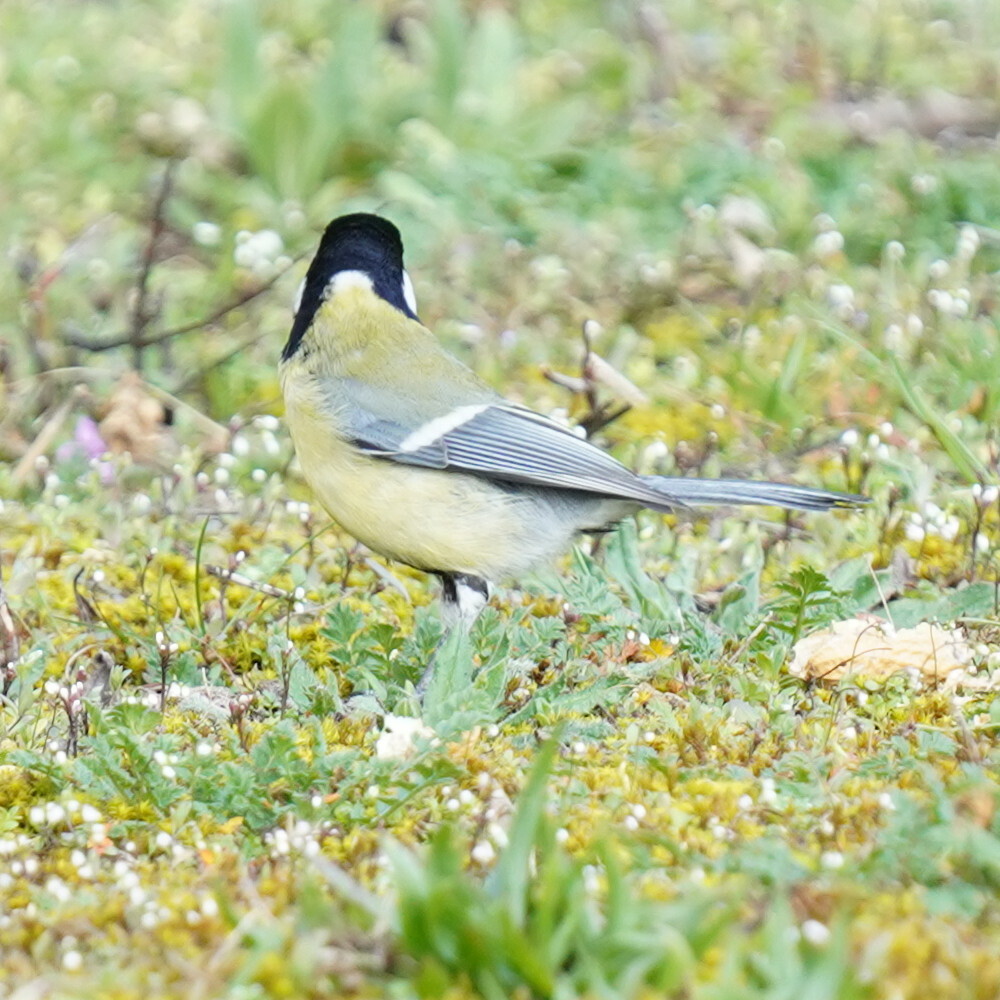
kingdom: Animalia
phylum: Chordata
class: Aves
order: Passeriformes
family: Paridae
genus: Parus
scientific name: Parus major
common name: Great tit
